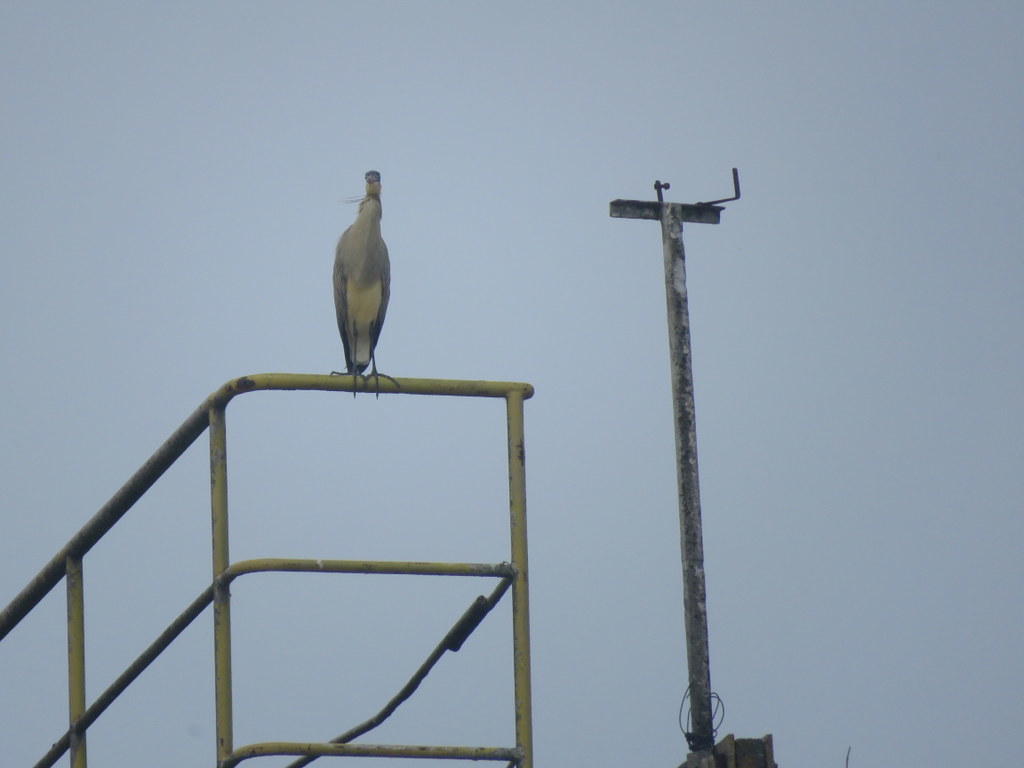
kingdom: Animalia
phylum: Chordata
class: Aves
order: Pelecaniformes
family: Ardeidae
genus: Syrigma
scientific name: Syrigma sibilatrix
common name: Whistling heron
